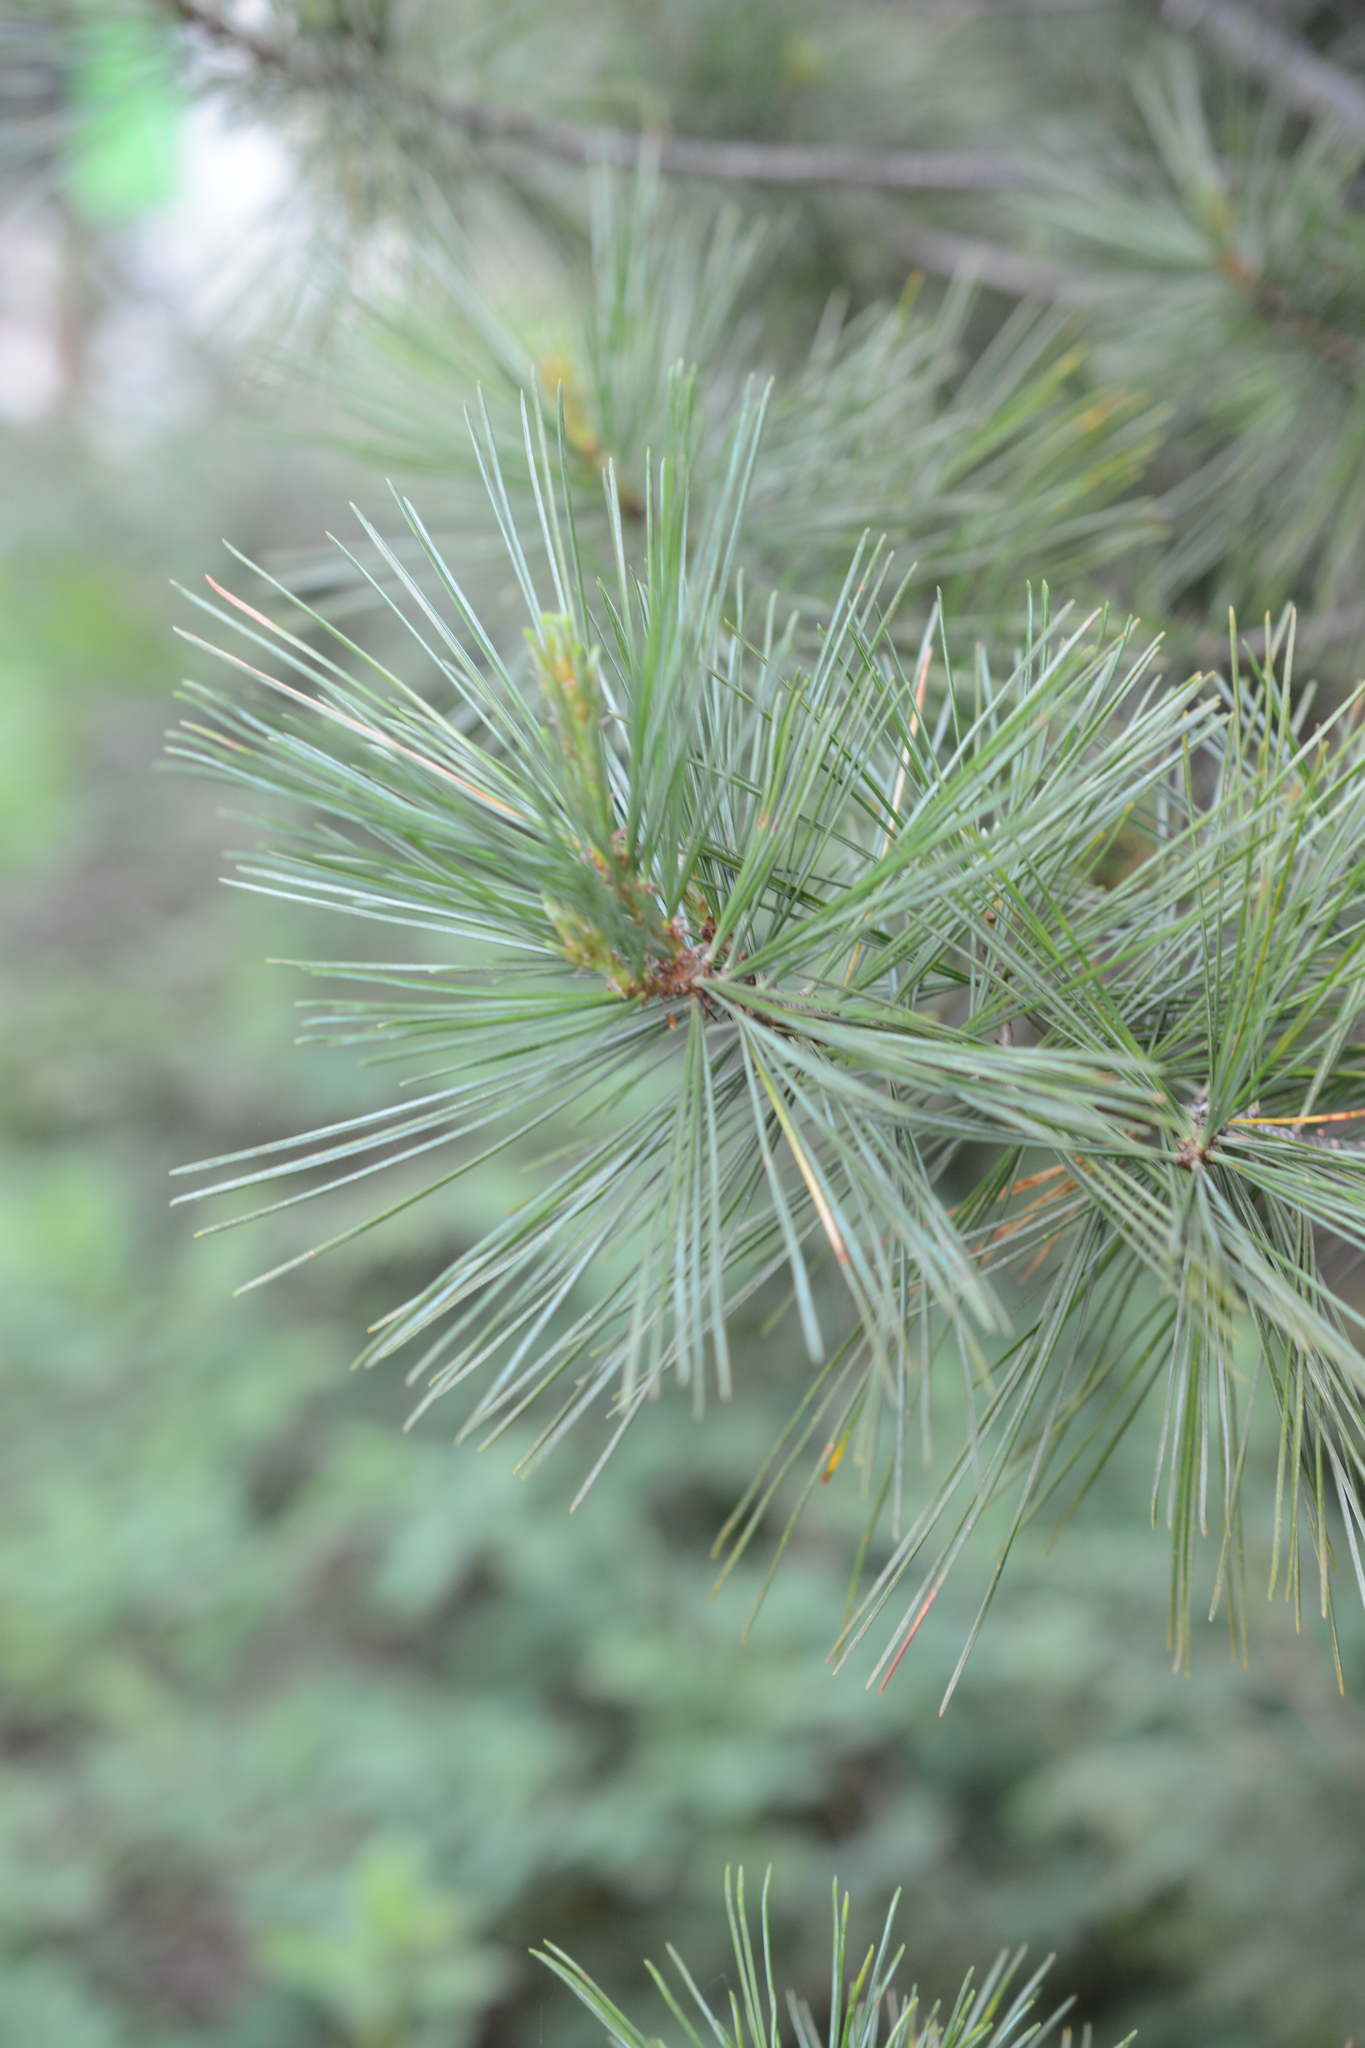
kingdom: Plantae
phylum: Tracheophyta
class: Pinopsida
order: Pinales
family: Pinaceae
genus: Pinus
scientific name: Pinus monticola
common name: Western white pine
